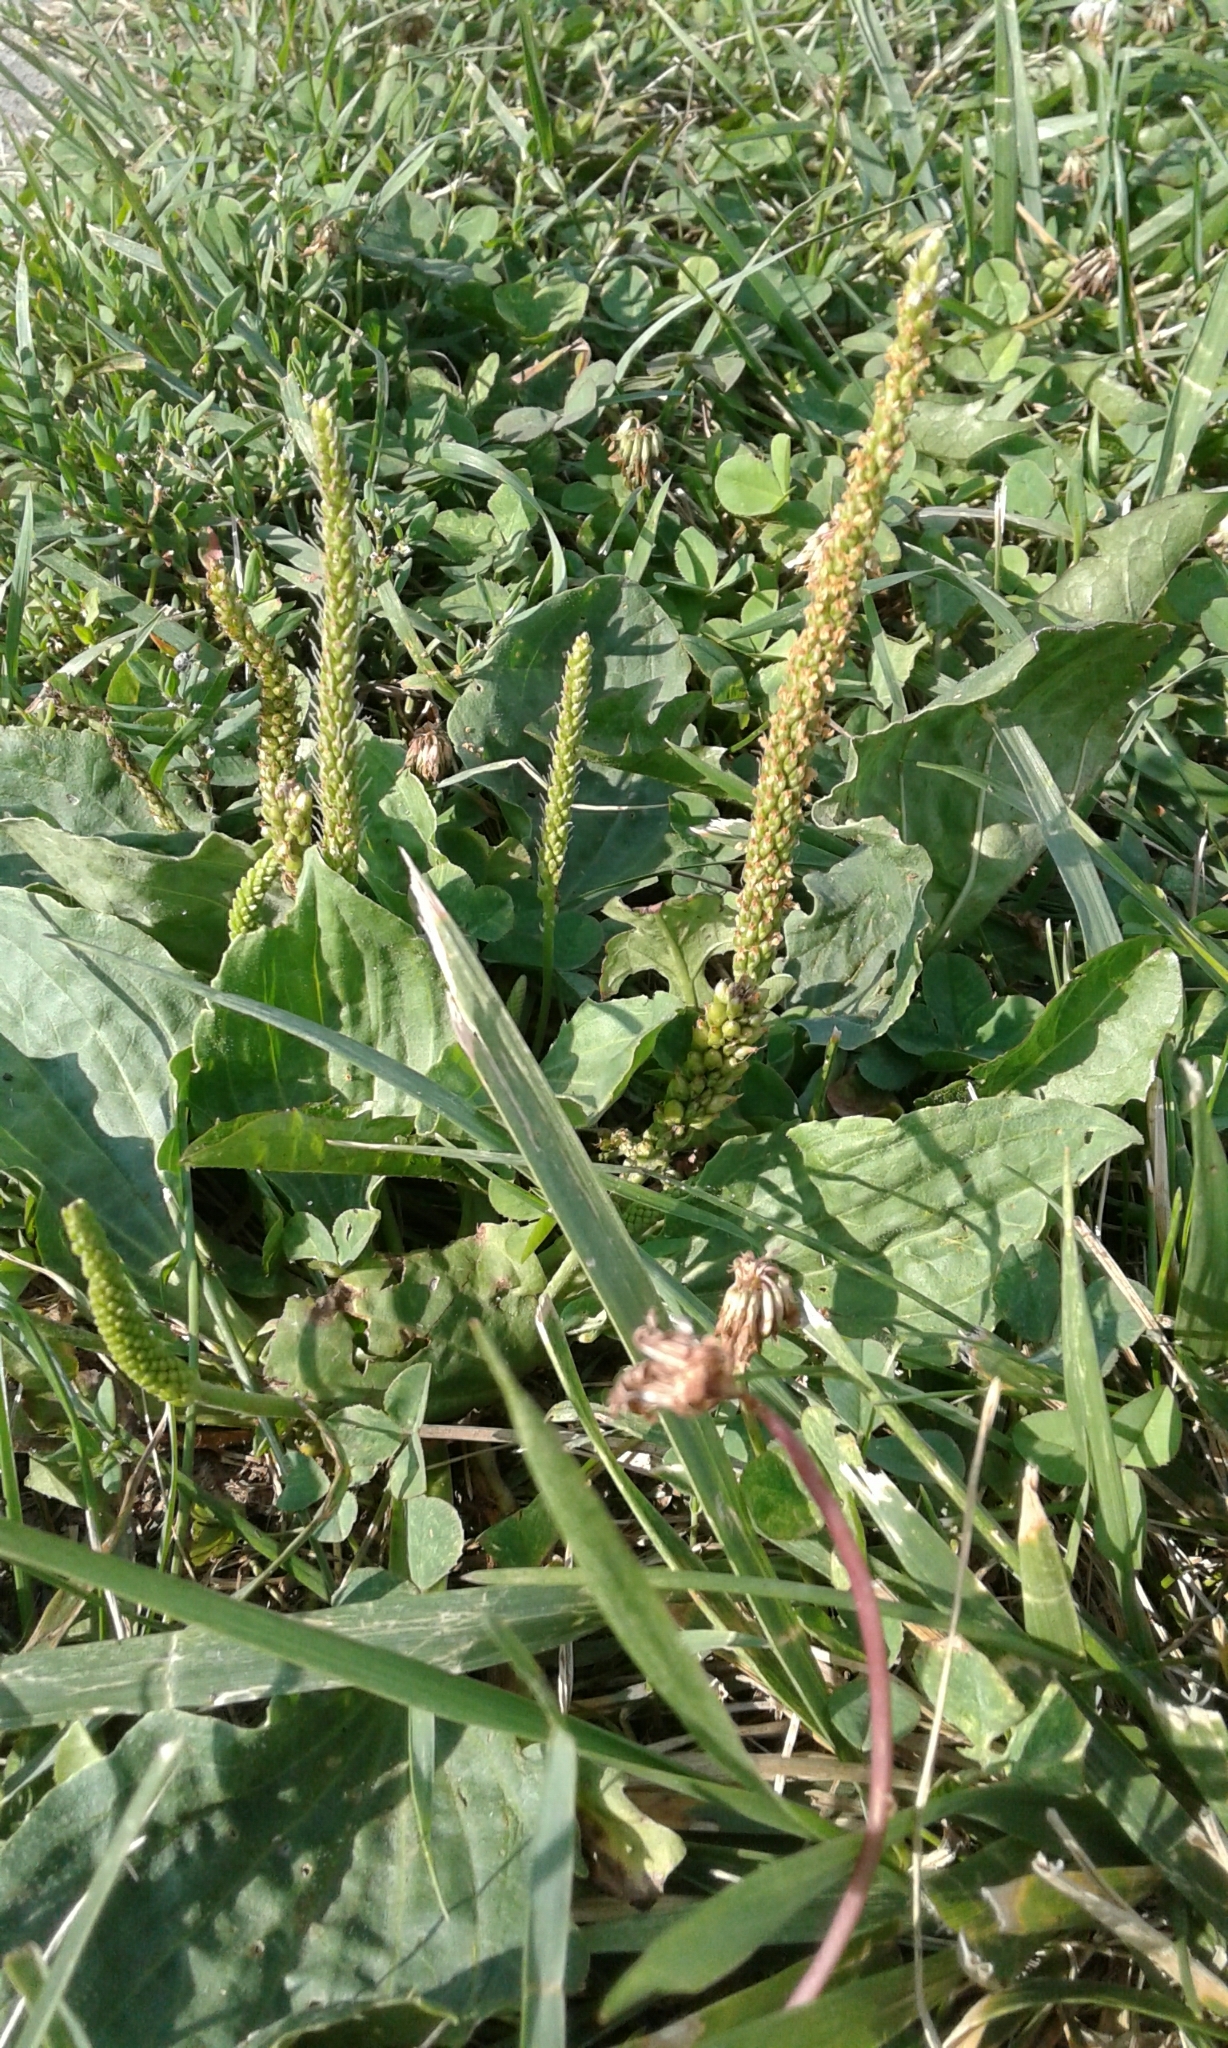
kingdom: Plantae
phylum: Tracheophyta
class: Magnoliopsida
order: Lamiales
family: Plantaginaceae
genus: Plantago
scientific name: Plantago major
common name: Common plantain
